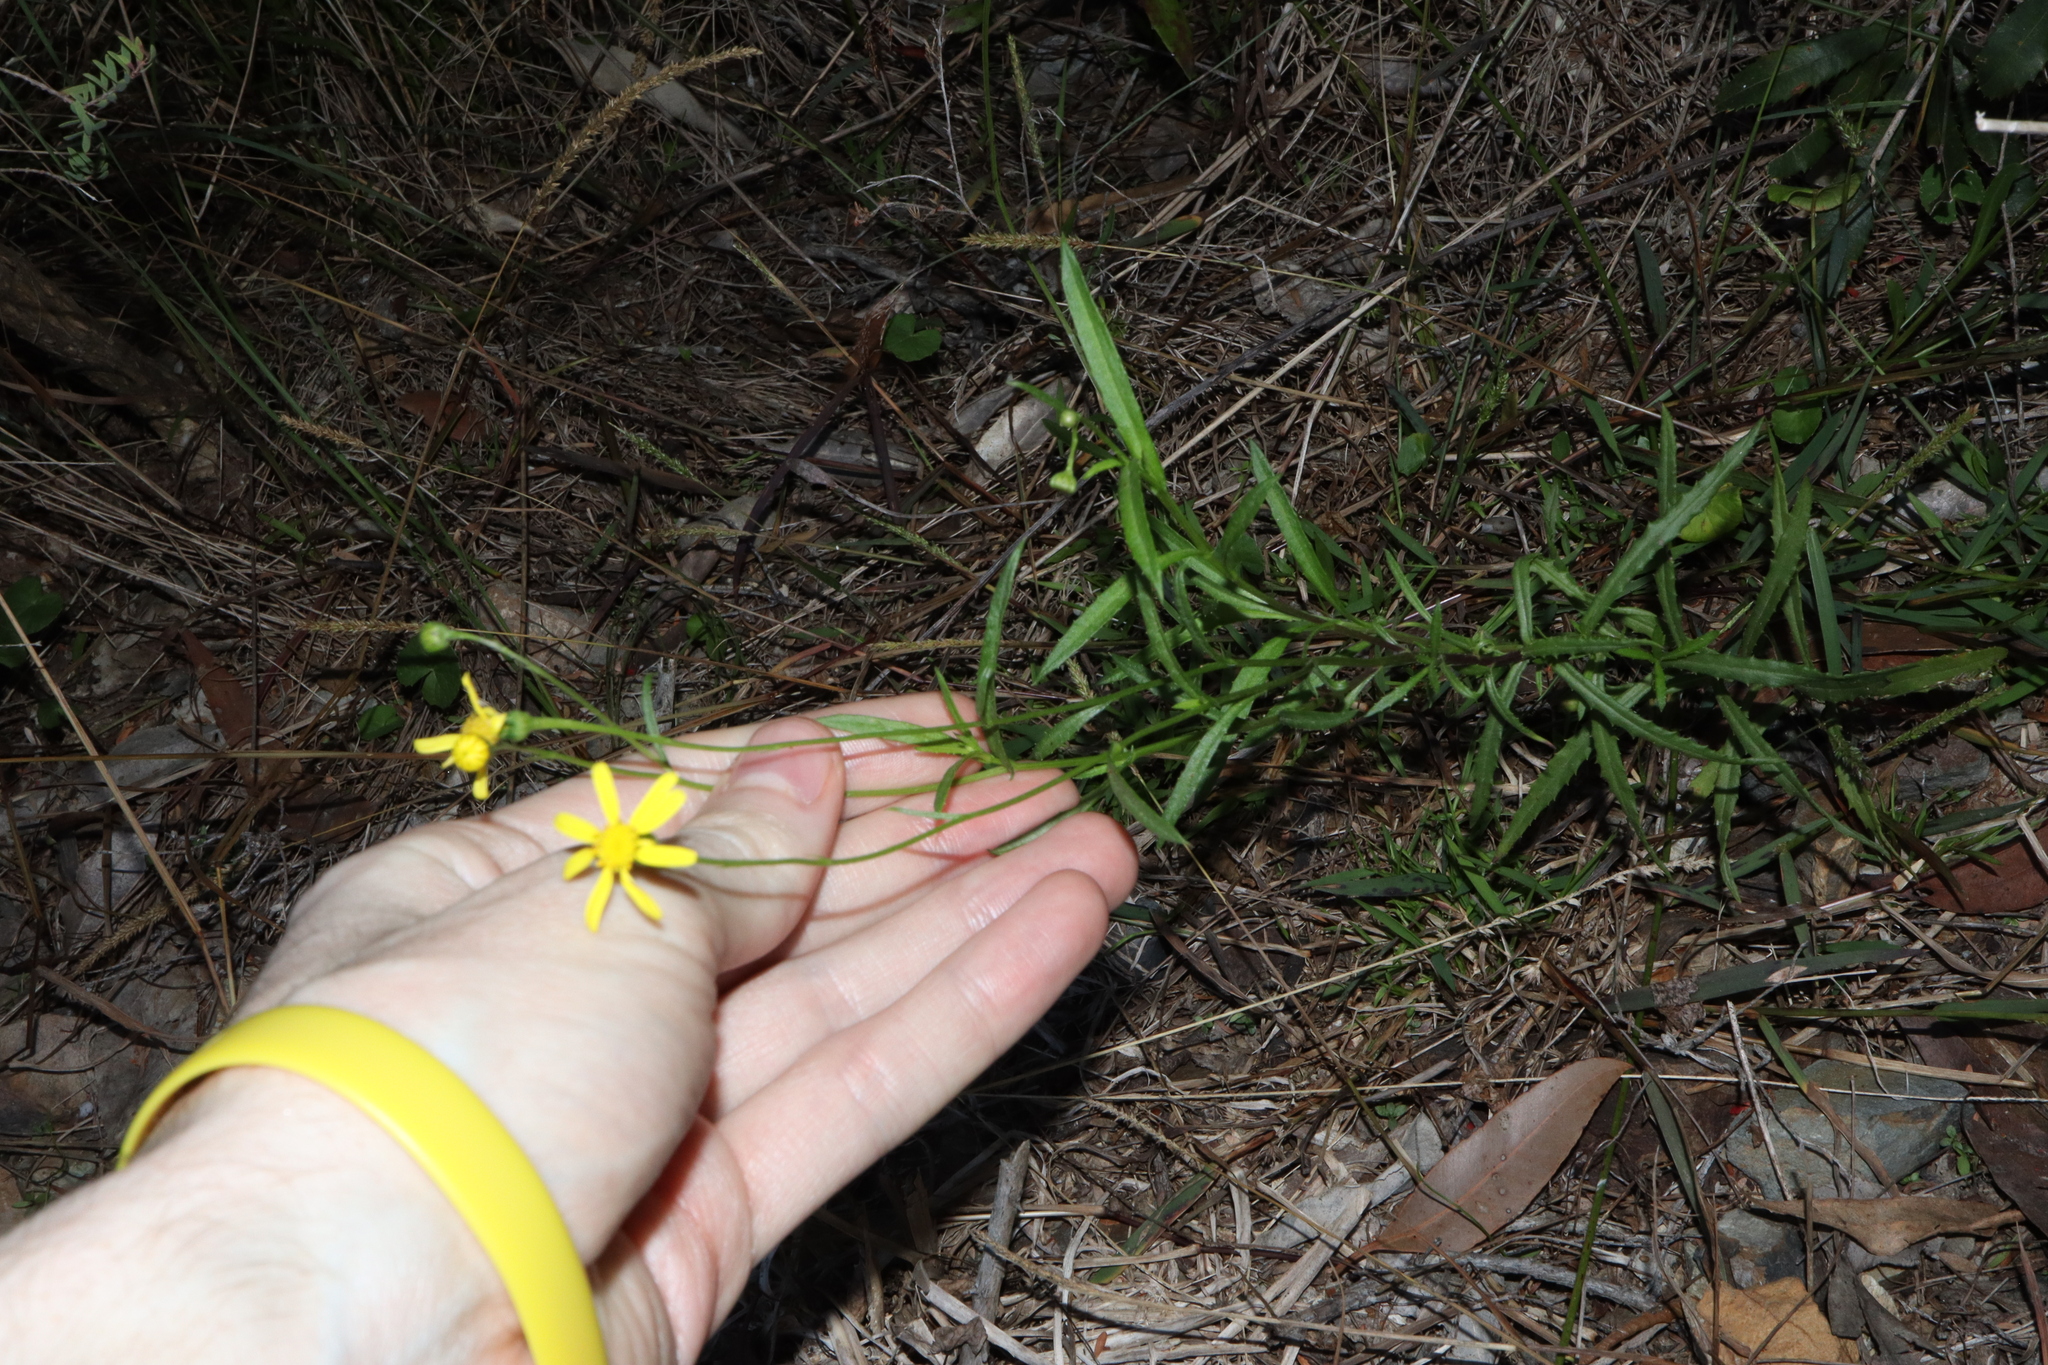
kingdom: Plantae
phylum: Tracheophyta
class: Magnoliopsida
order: Asterales
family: Asteraceae
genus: Senecio
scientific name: Senecio madagascariensis
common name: Madagascar ragwort
